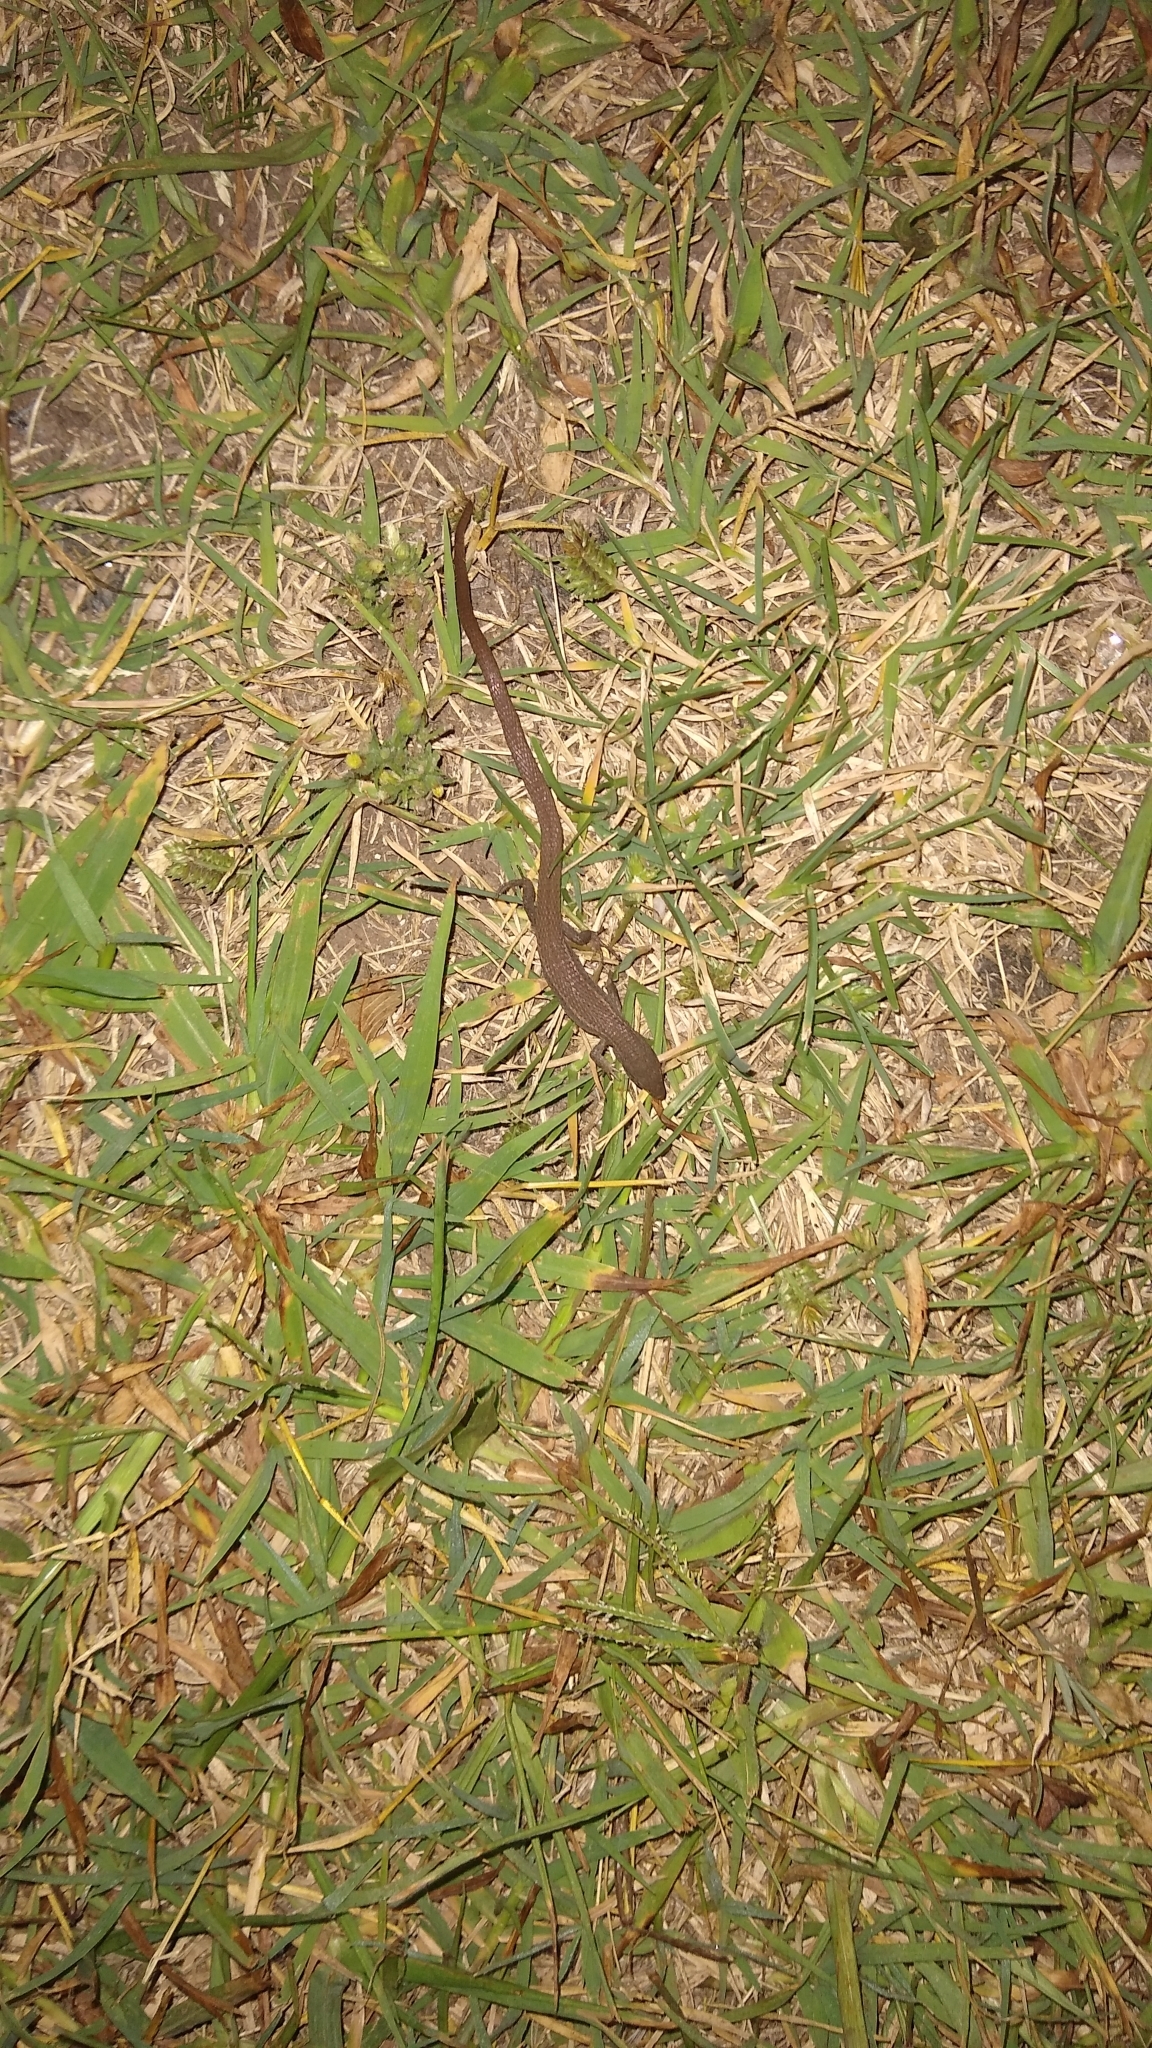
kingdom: Animalia
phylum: Chordata
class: Squamata
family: Gymnophthalmidae
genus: Cercosaura
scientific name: Cercosaura schreibersii
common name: Schreibers' many-fingered teiid
